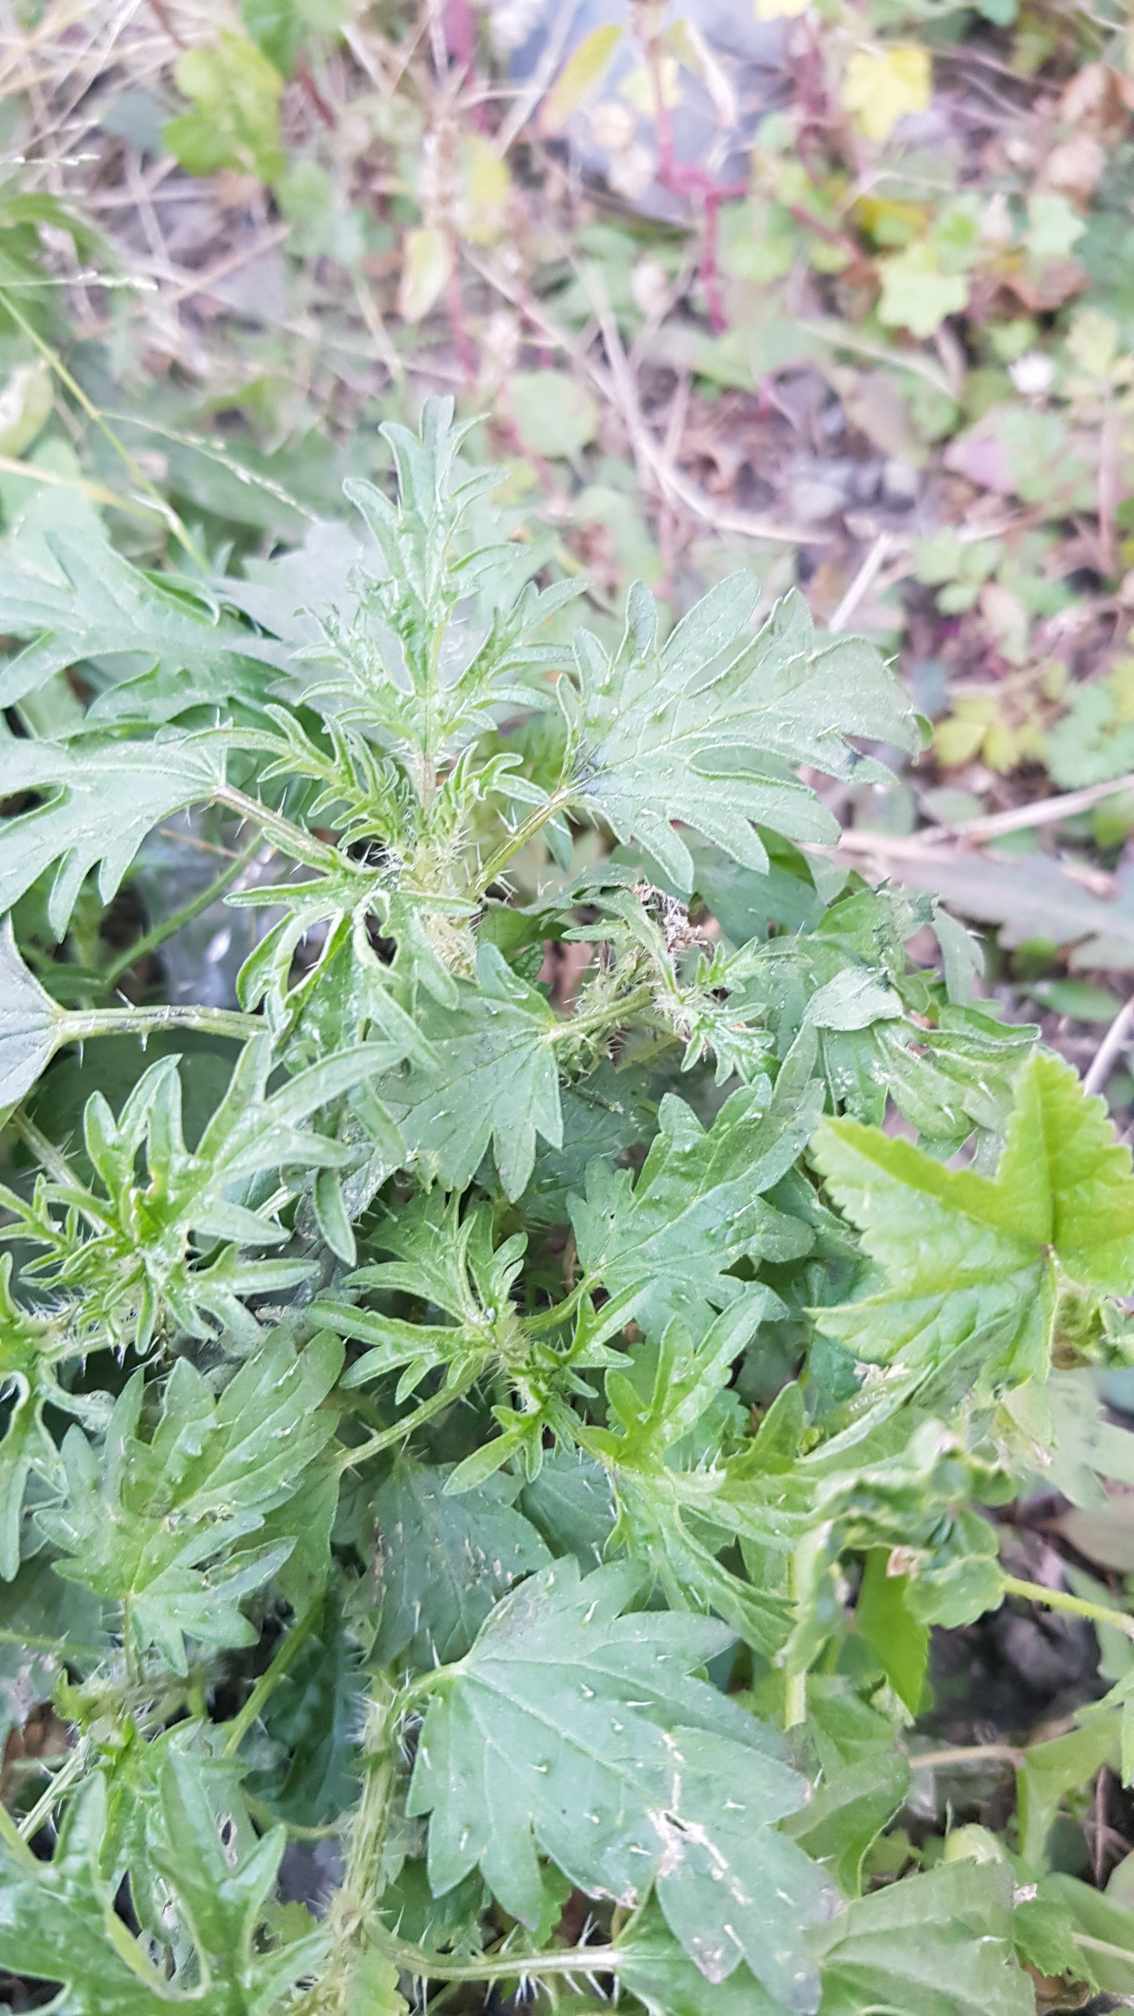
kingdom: Plantae
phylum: Tracheophyta
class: Magnoliopsida
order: Rosales
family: Urticaceae
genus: Urtica
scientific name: Urtica cannabina
